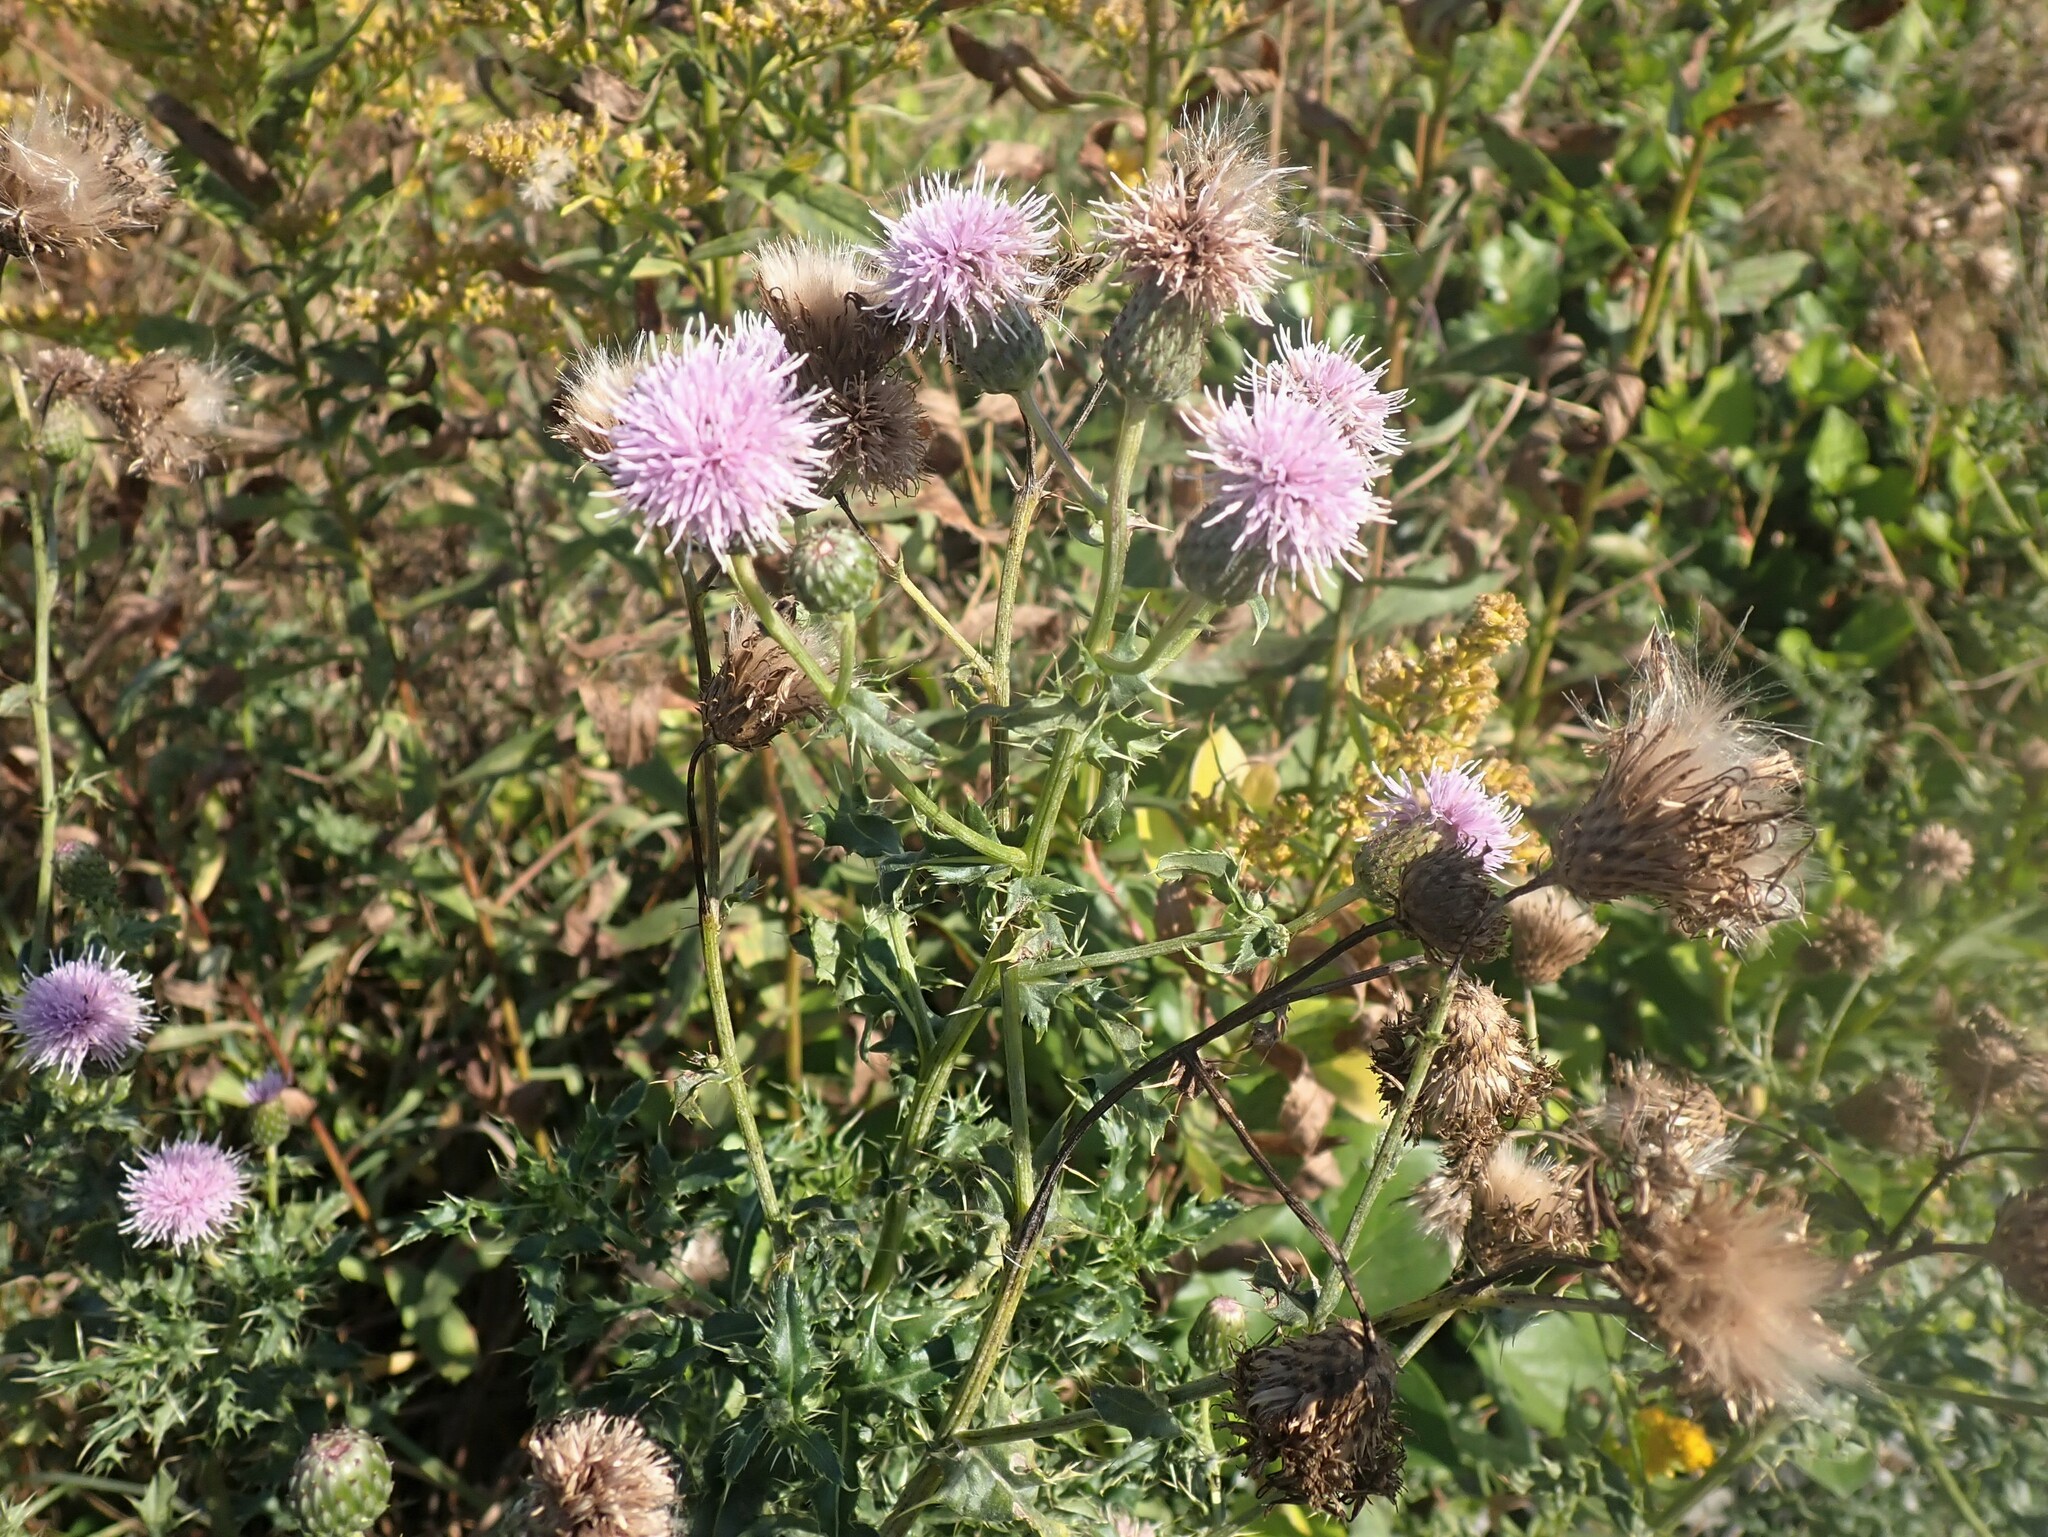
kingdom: Plantae
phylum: Tracheophyta
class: Magnoliopsida
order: Asterales
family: Asteraceae
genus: Cirsium
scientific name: Cirsium arvense
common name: Creeping thistle
